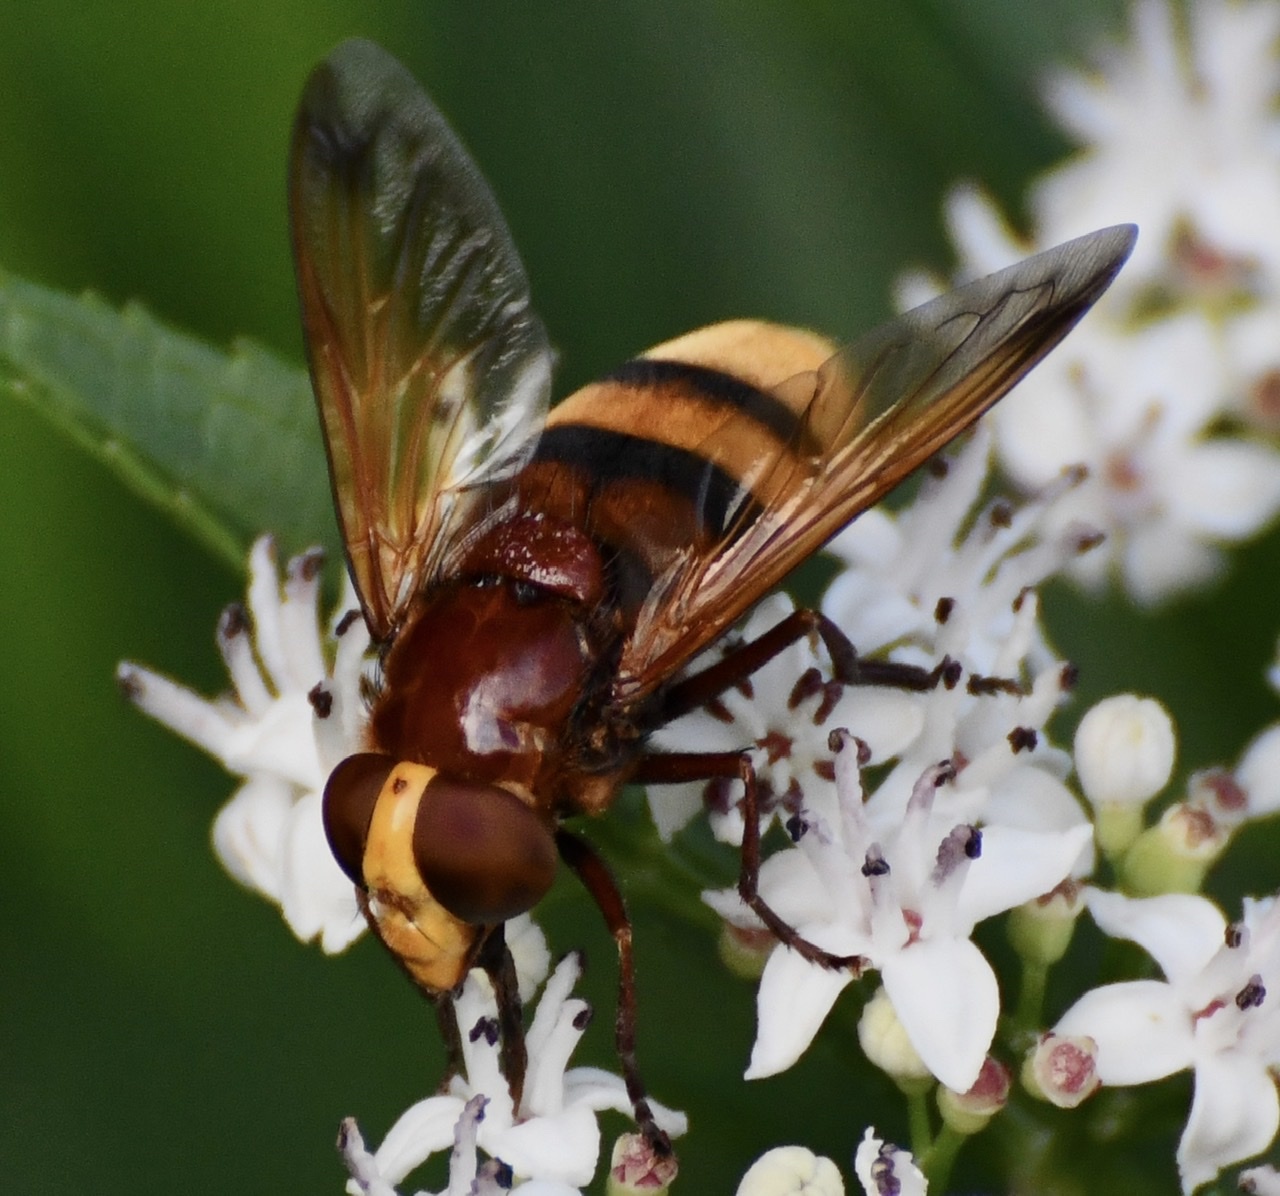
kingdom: Animalia
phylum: Arthropoda
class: Insecta
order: Diptera
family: Syrphidae
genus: Volucella
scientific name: Volucella zonaria
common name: Hornet hoverfly
